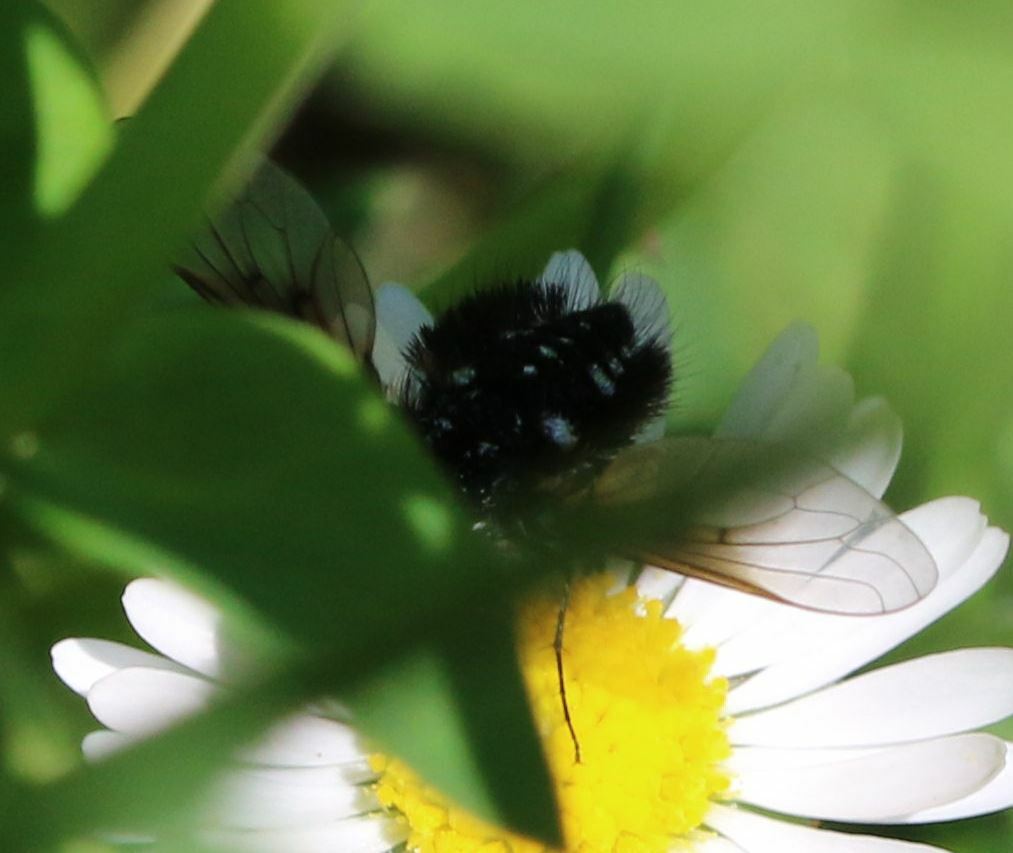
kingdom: Animalia
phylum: Arthropoda
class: Insecta
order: Diptera
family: Bombyliidae
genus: Bombylella
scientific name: Bombylella atra
